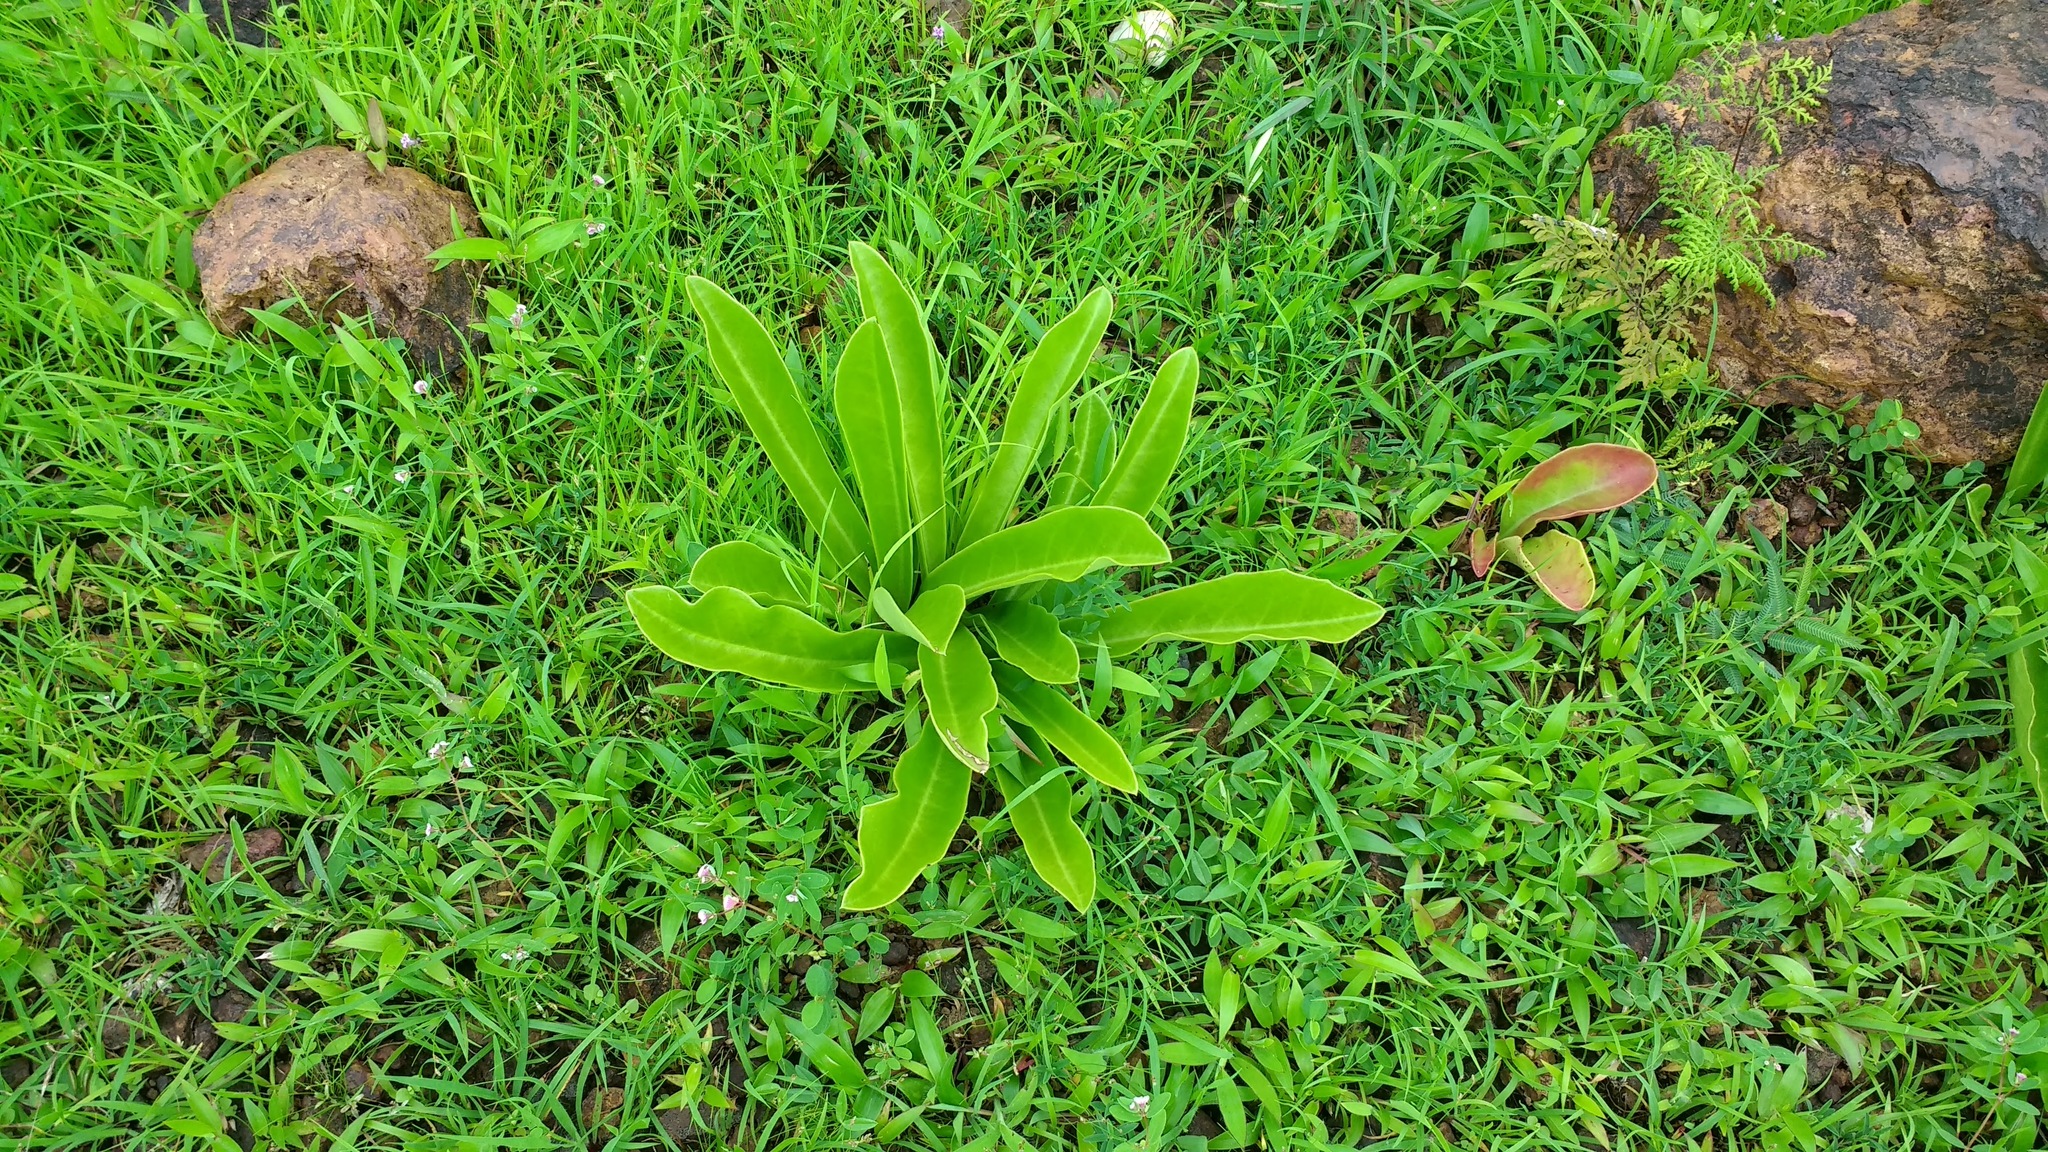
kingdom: Plantae
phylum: Tracheophyta
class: Magnoliopsida
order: Malpighiales
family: Euphorbiaceae
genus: Euphorbia
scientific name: Euphorbia fusiformis
